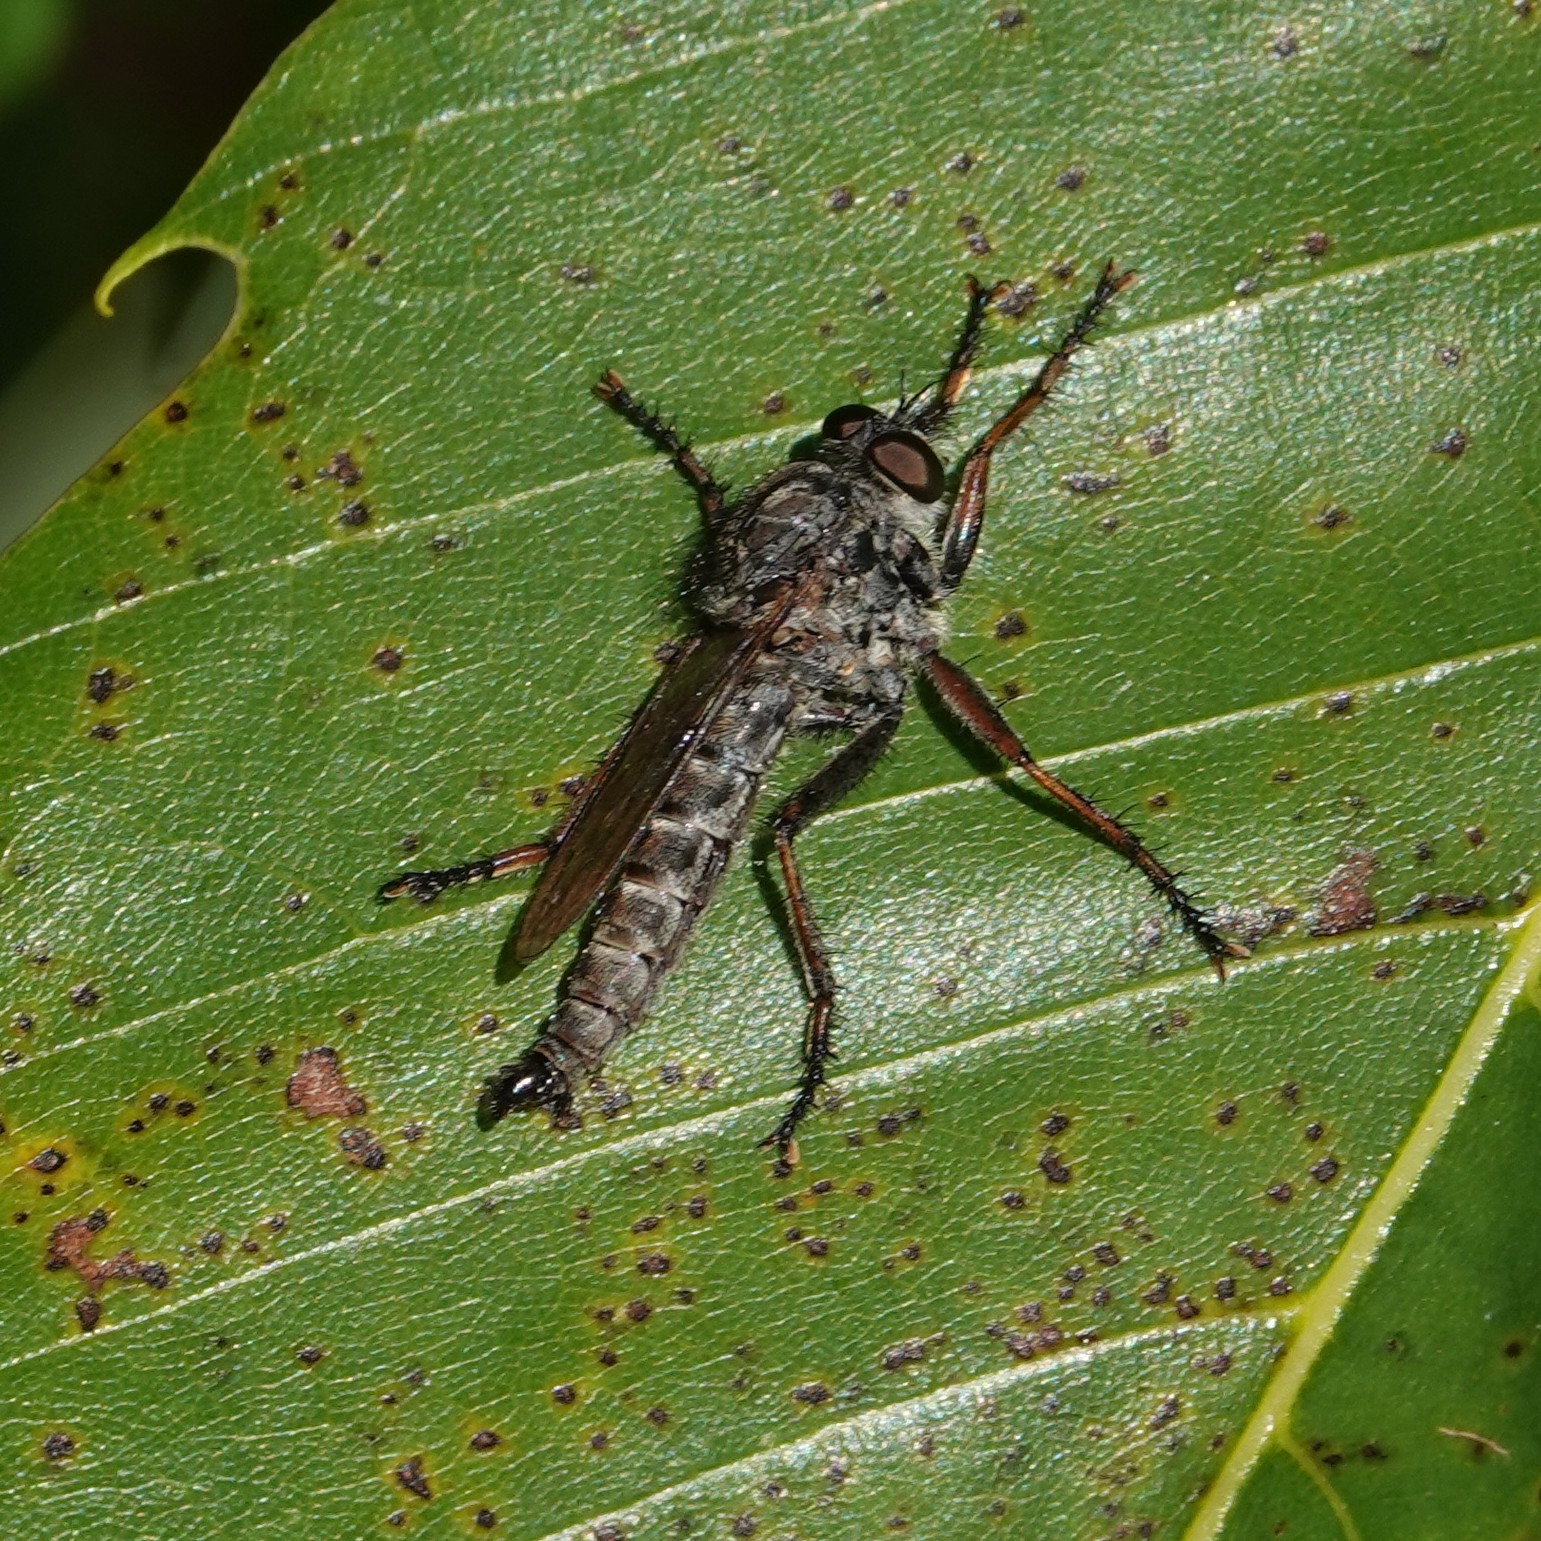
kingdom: Animalia
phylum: Arthropoda
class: Insecta
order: Diptera
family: Asilidae
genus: Machimus
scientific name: Machimus atricapillus
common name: Kite-tailed robberfly
